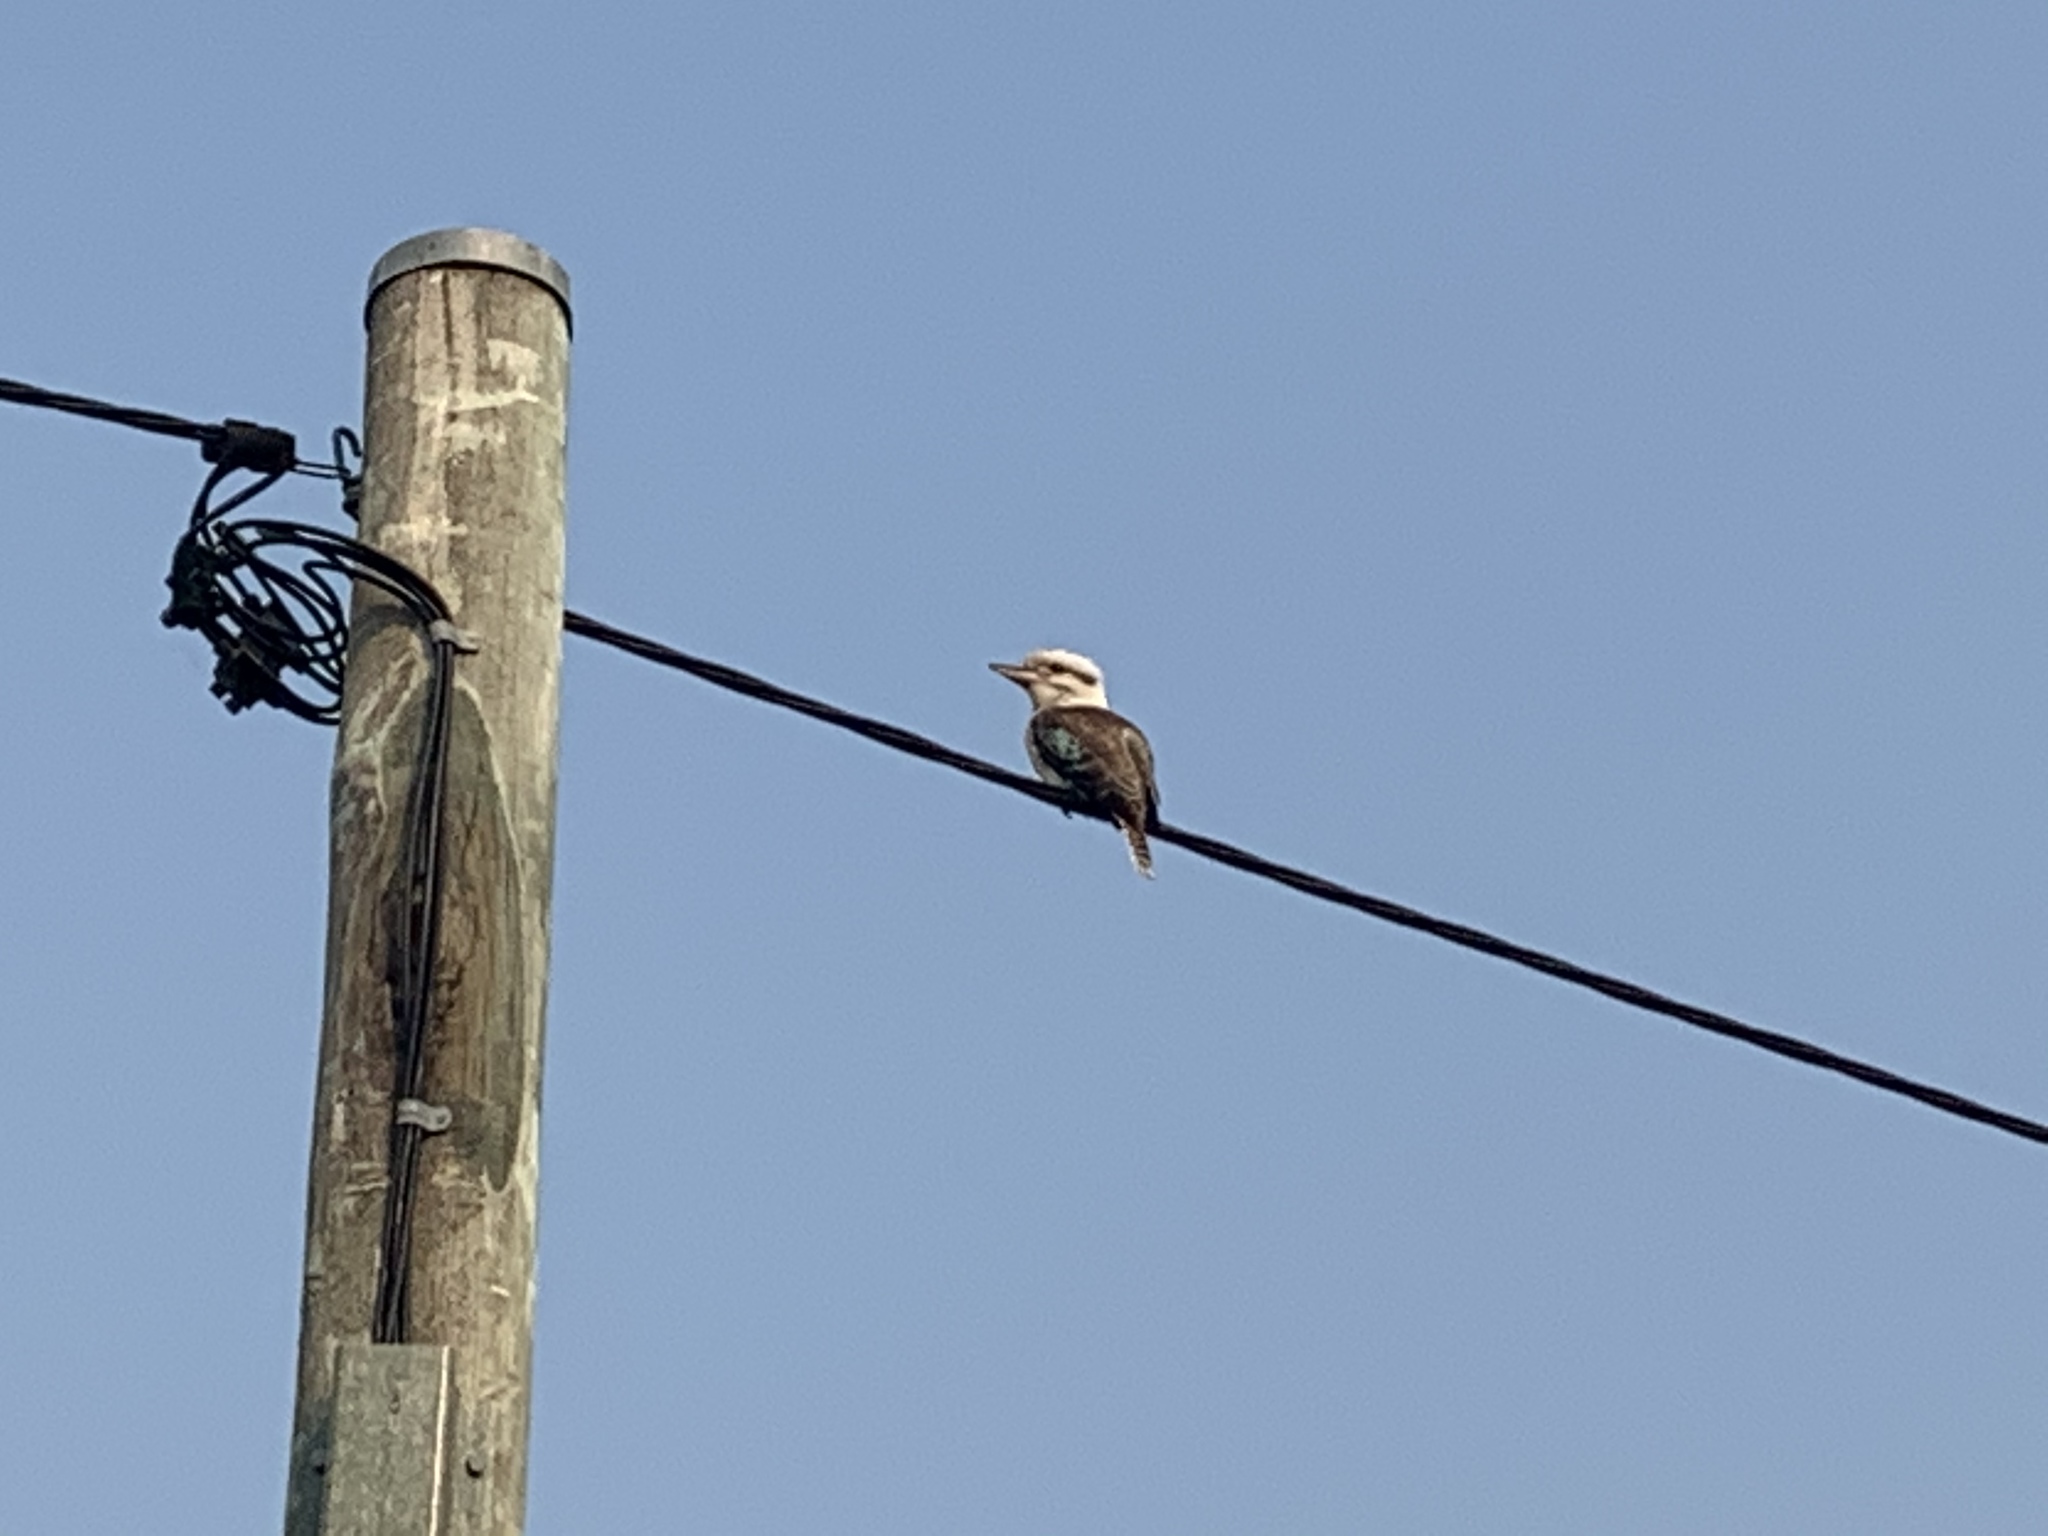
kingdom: Animalia
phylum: Chordata
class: Aves
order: Coraciiformes
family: Alcedinidae
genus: Dacelo
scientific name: Dacelo novaeguineae
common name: Laughing kookaburra
